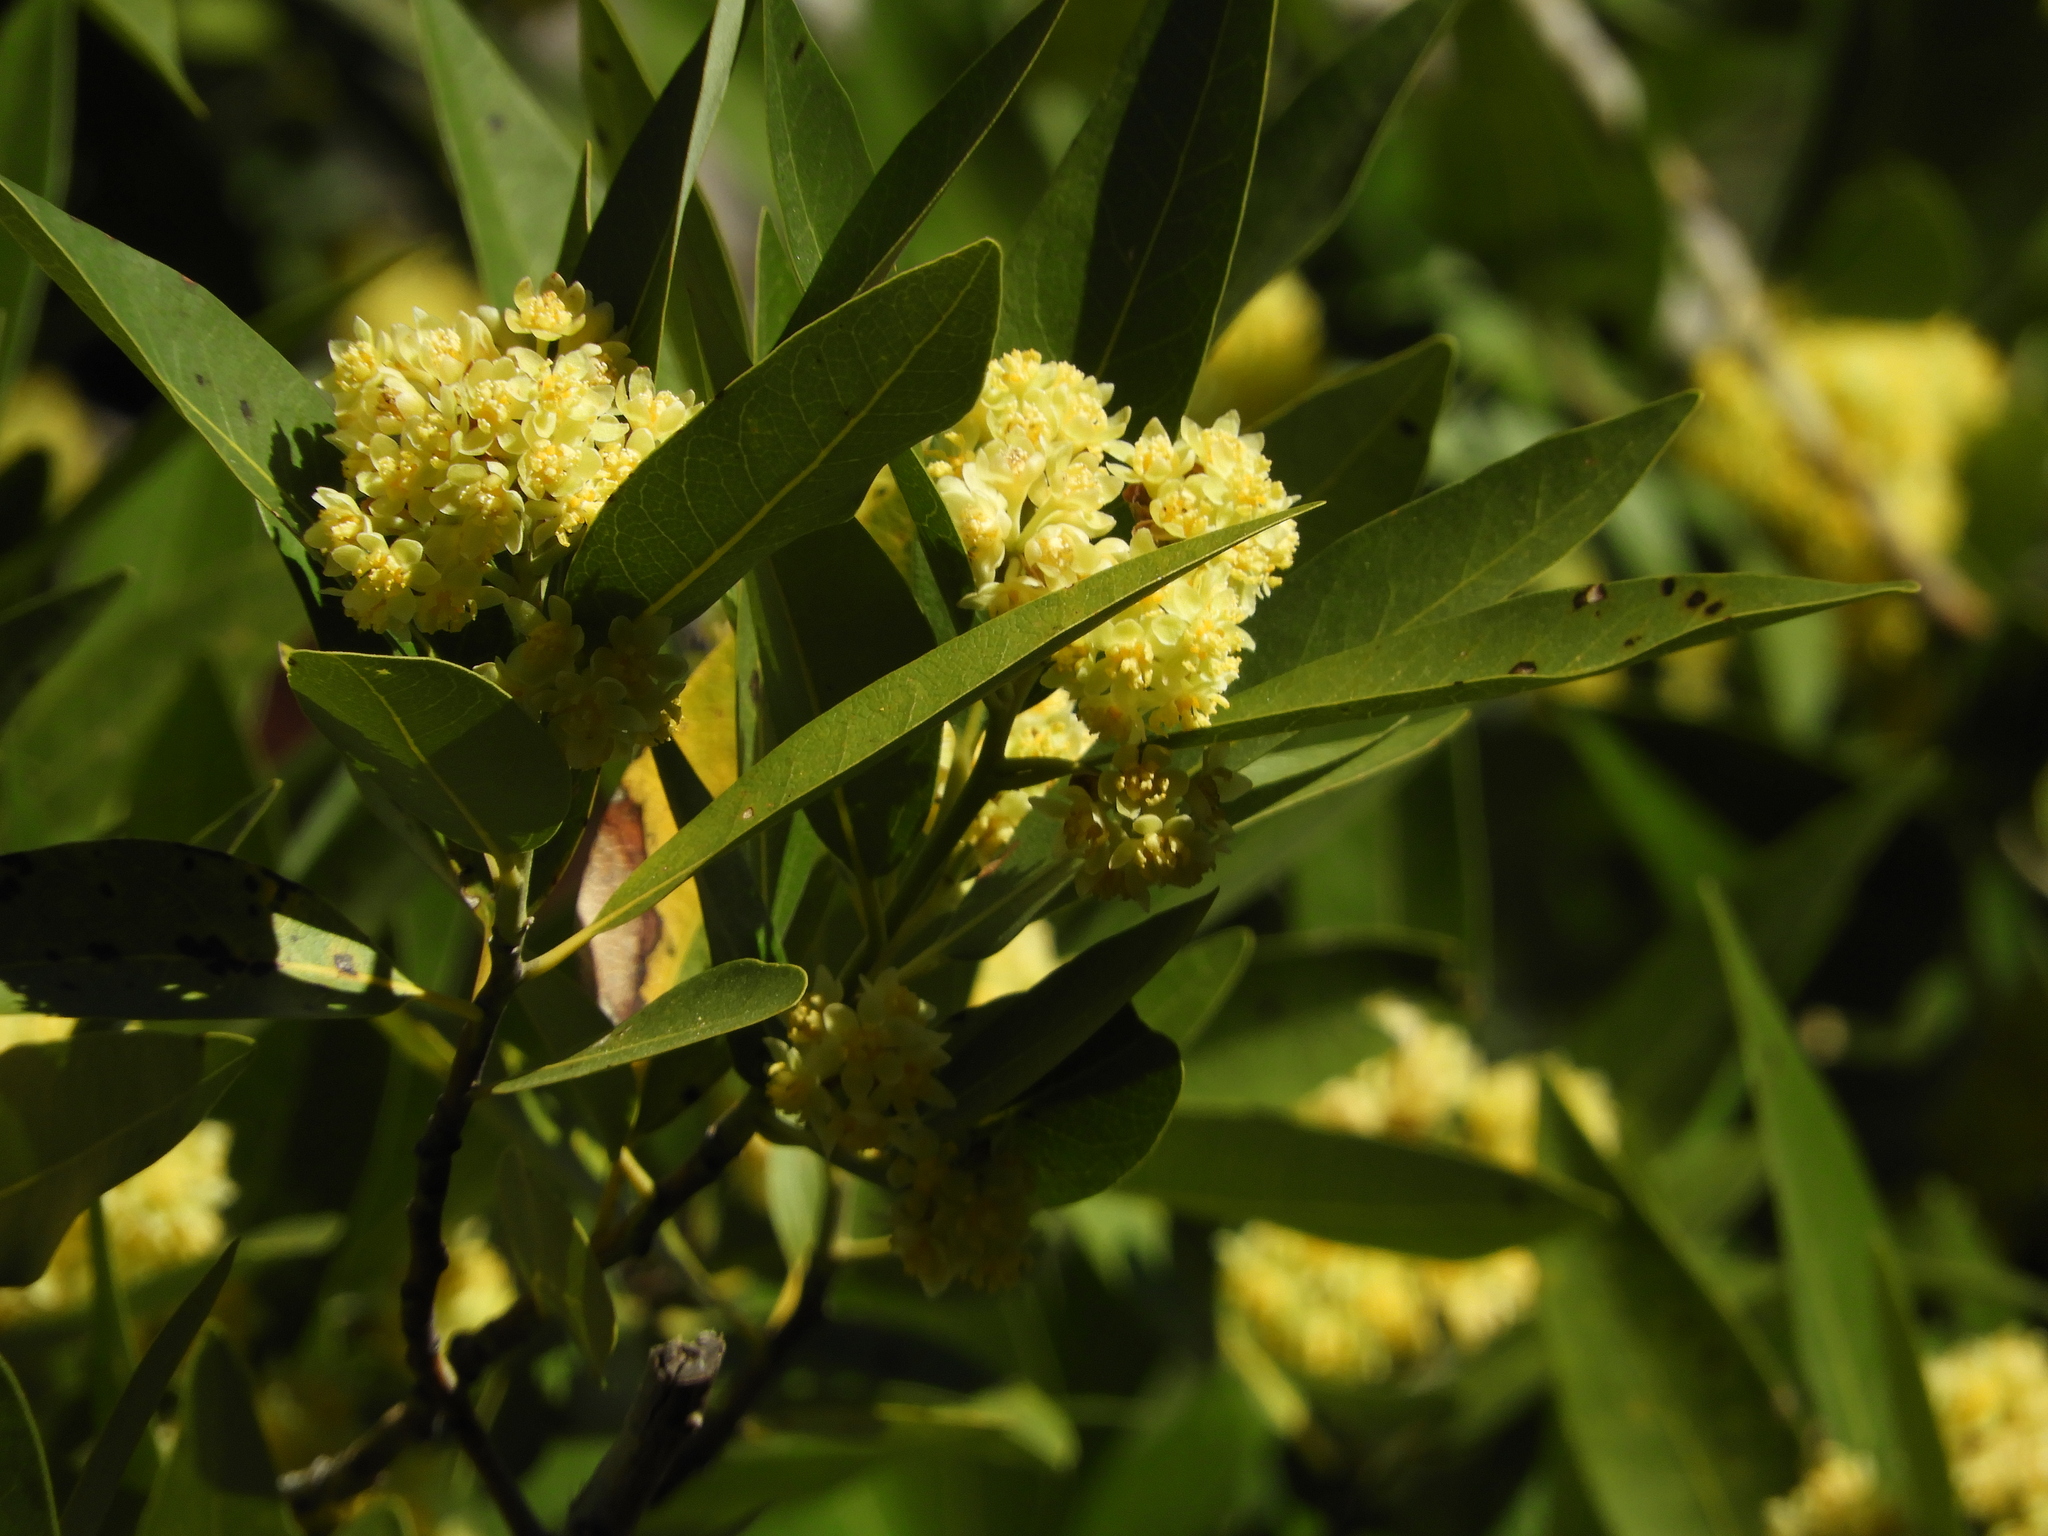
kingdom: Plantae
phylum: Tracheophyta
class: Magnoliopsida
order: Laurales
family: Lauraceae
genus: Umbellularia
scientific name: Umbellularia californica
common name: California bay
